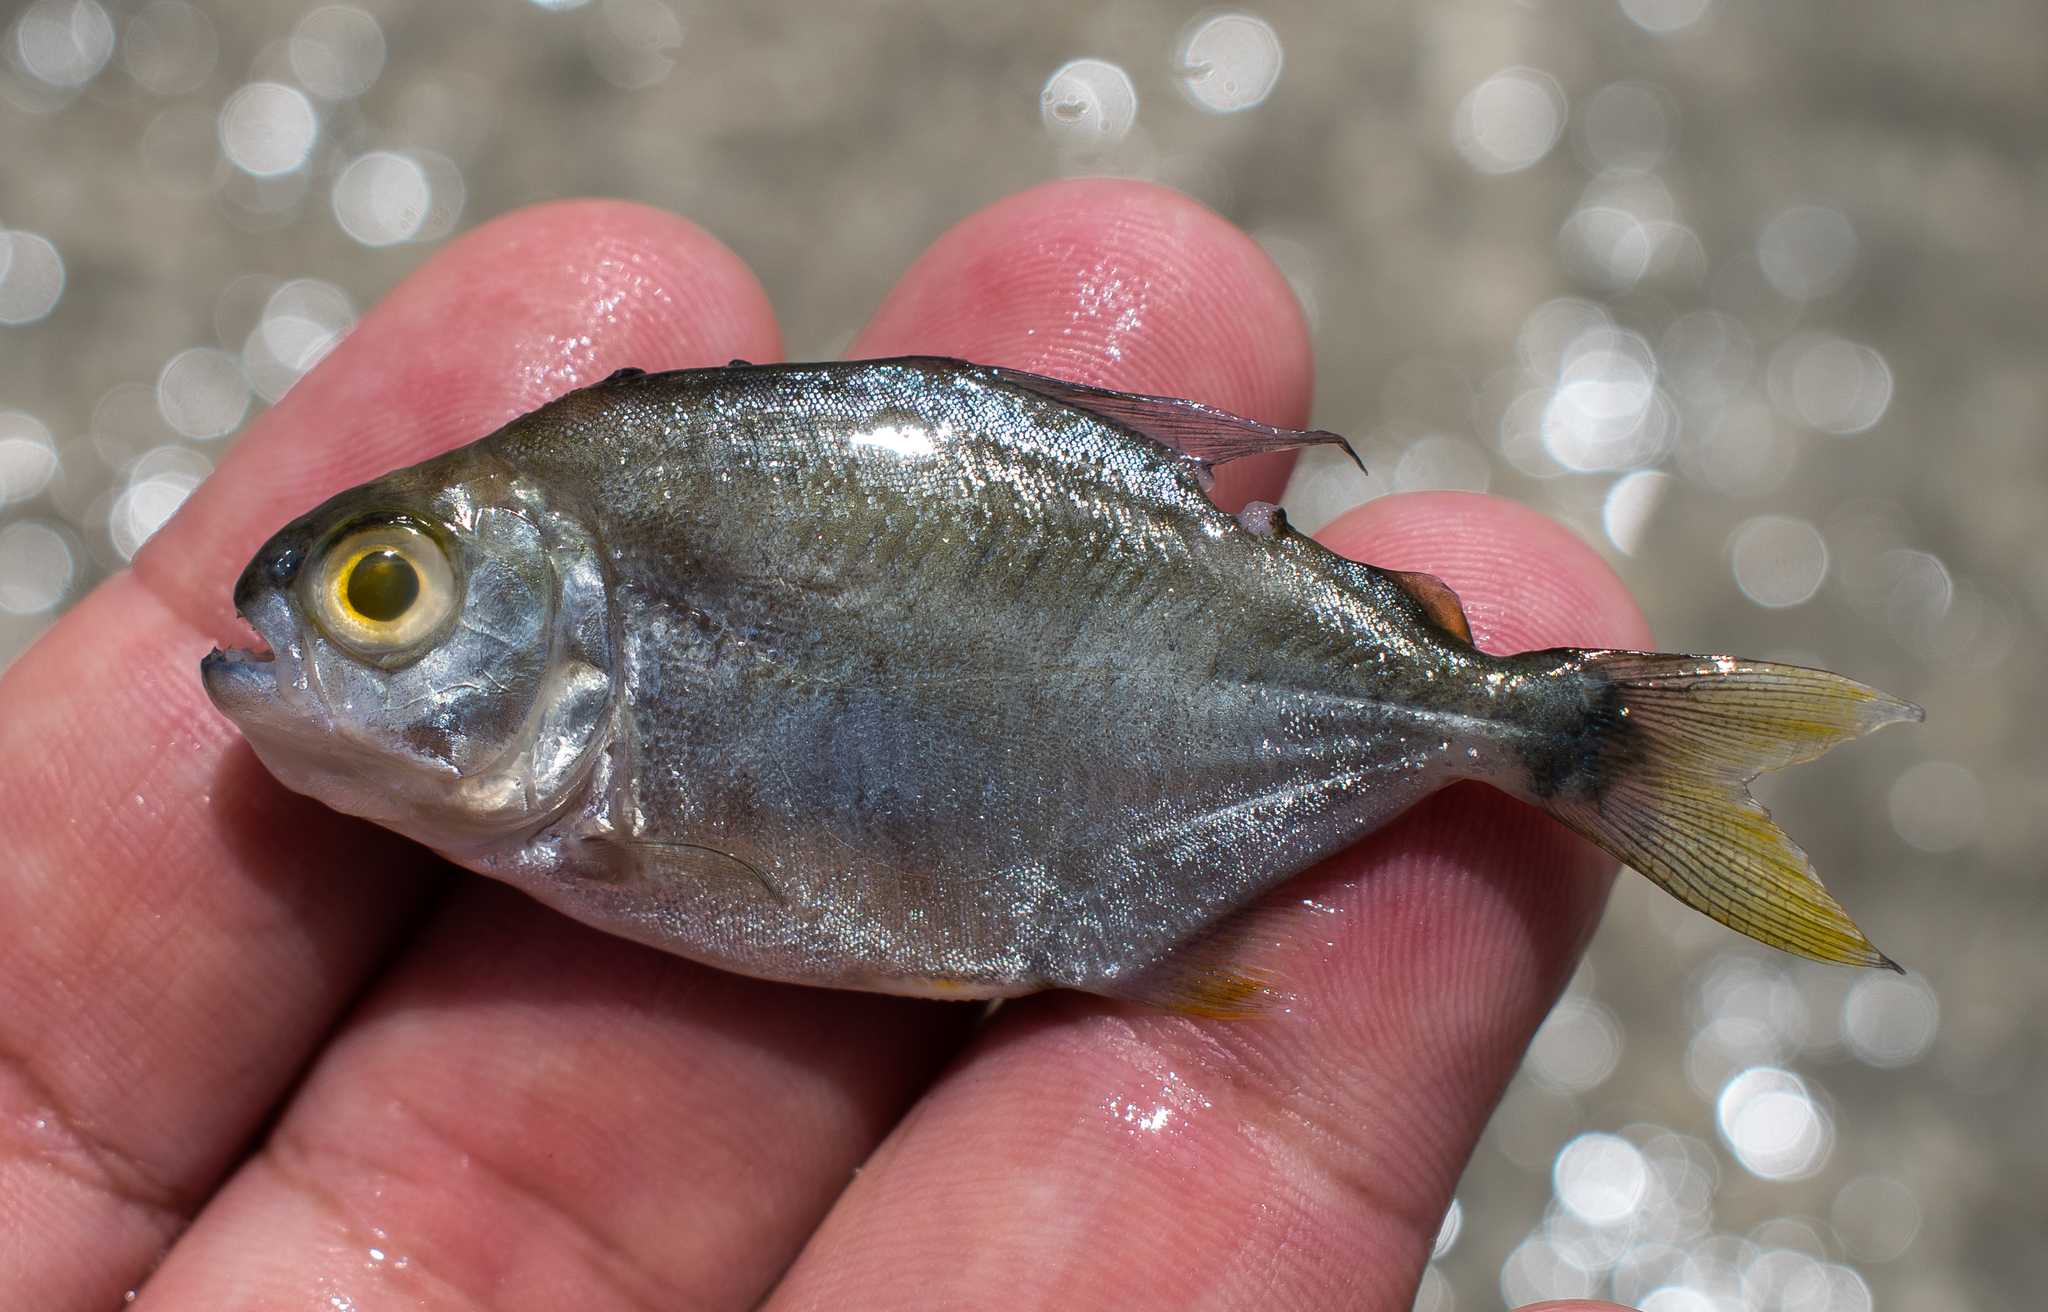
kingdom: Animalia
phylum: Chordata
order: Characiformes
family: Serrasalmidae
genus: Pygopristis
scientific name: Pygopristis denticulata
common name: Lobetoothed piranha
